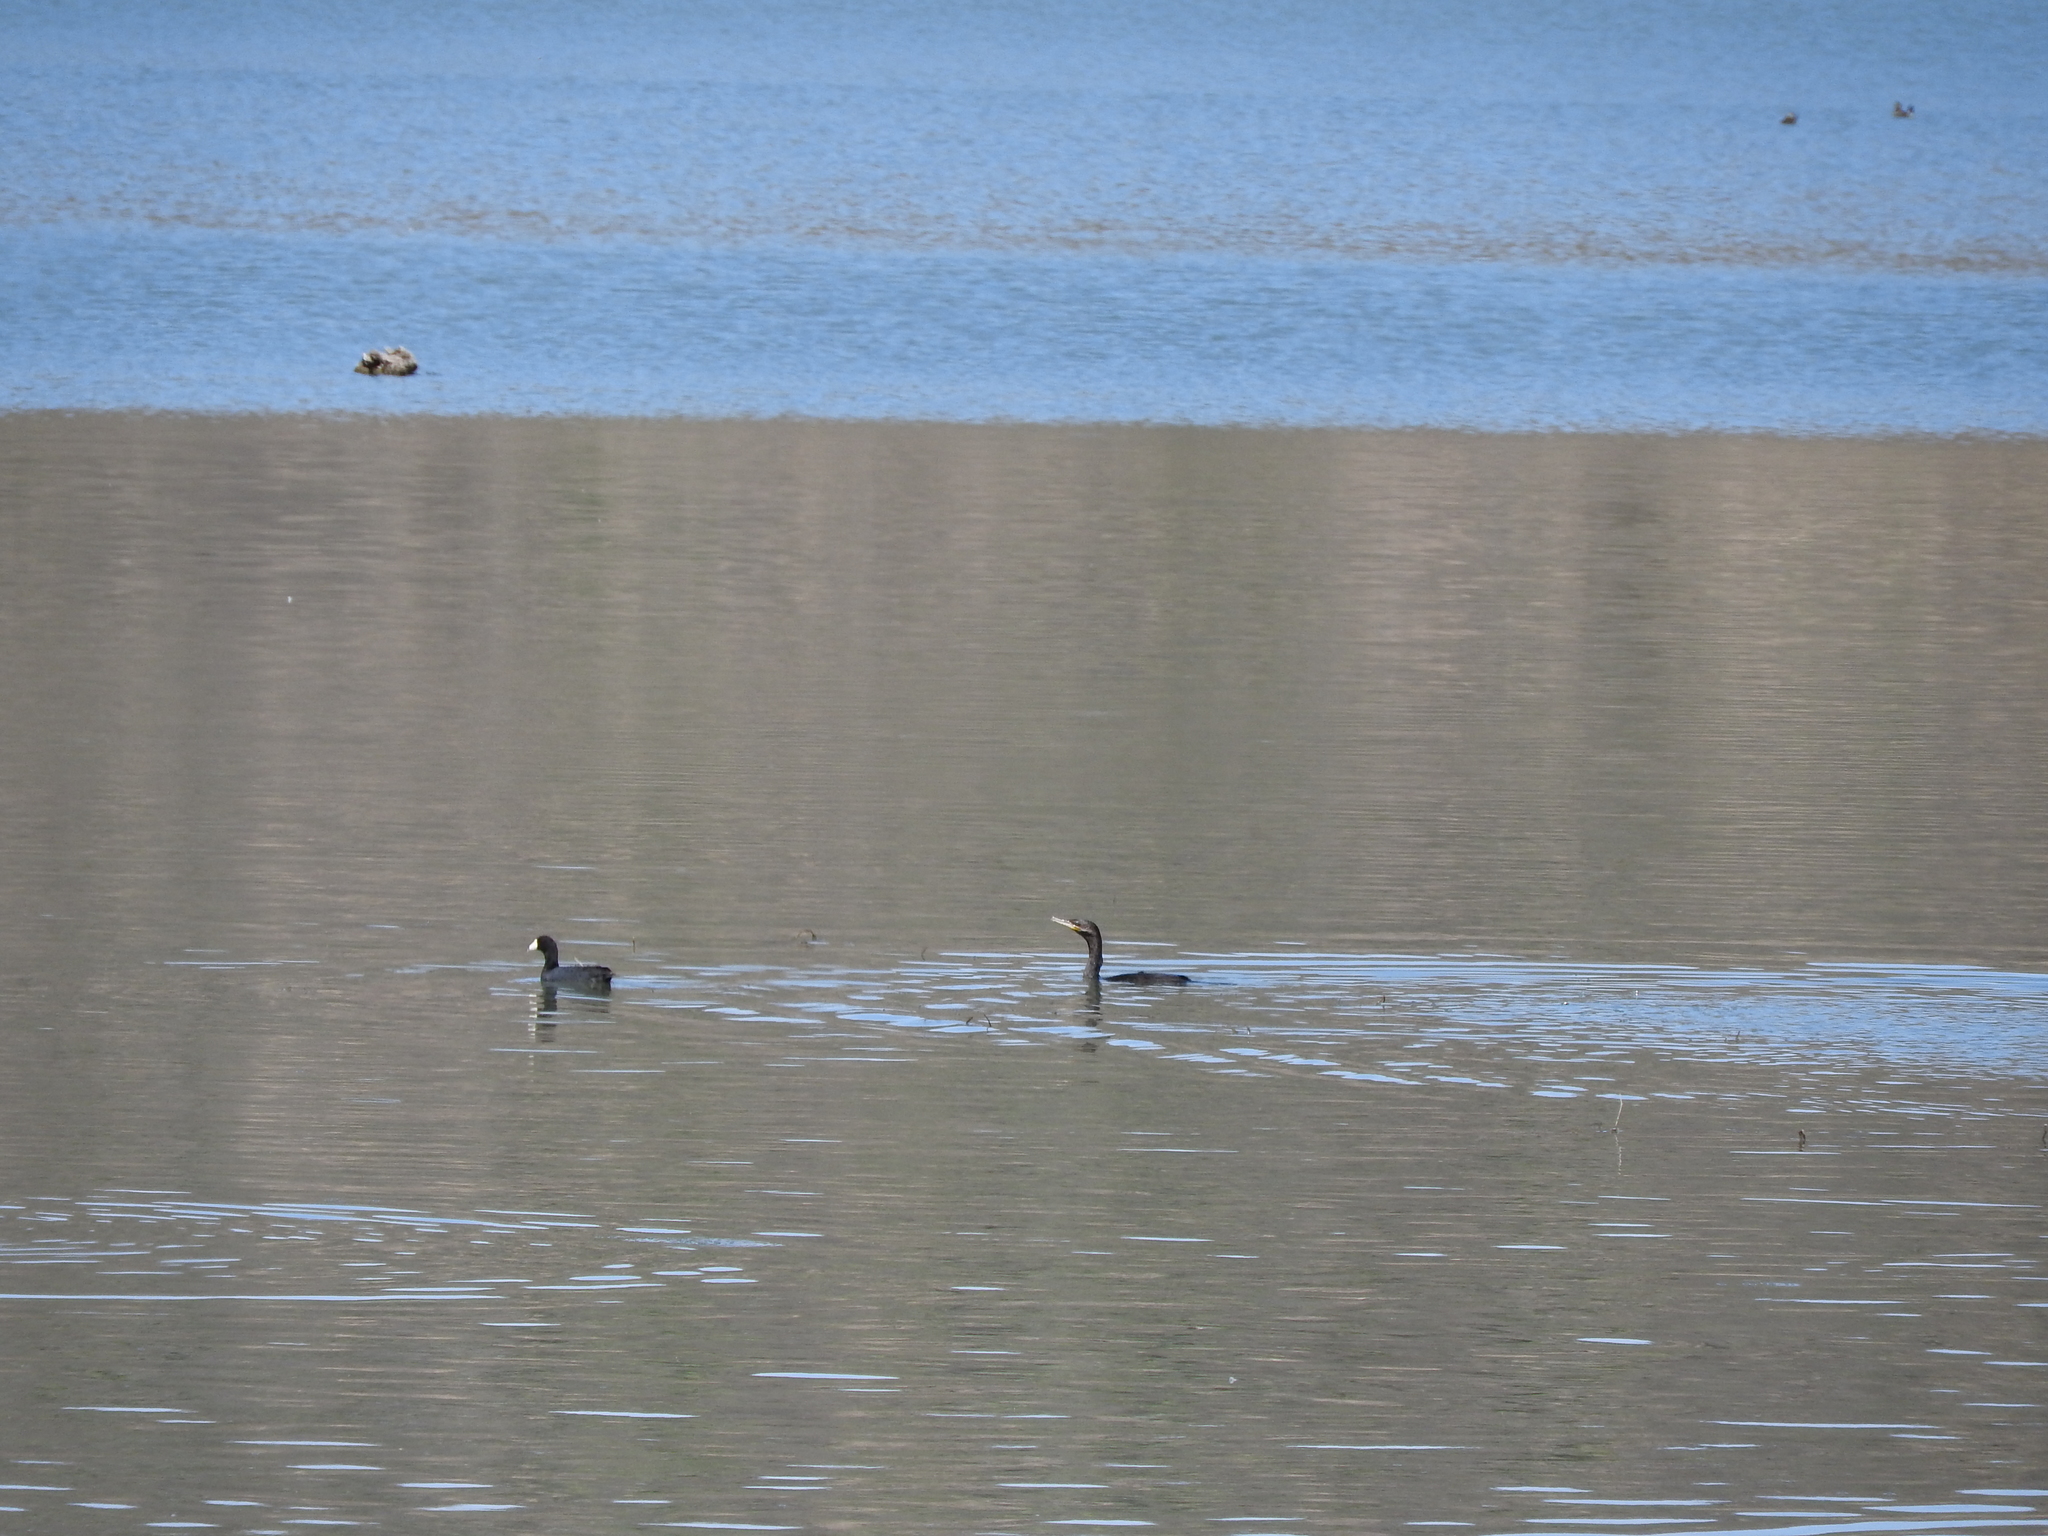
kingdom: Animalia
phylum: Chordata
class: Aves
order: Gruiformes
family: Rallidae
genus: Fulica
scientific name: Fulica americana
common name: American coot
